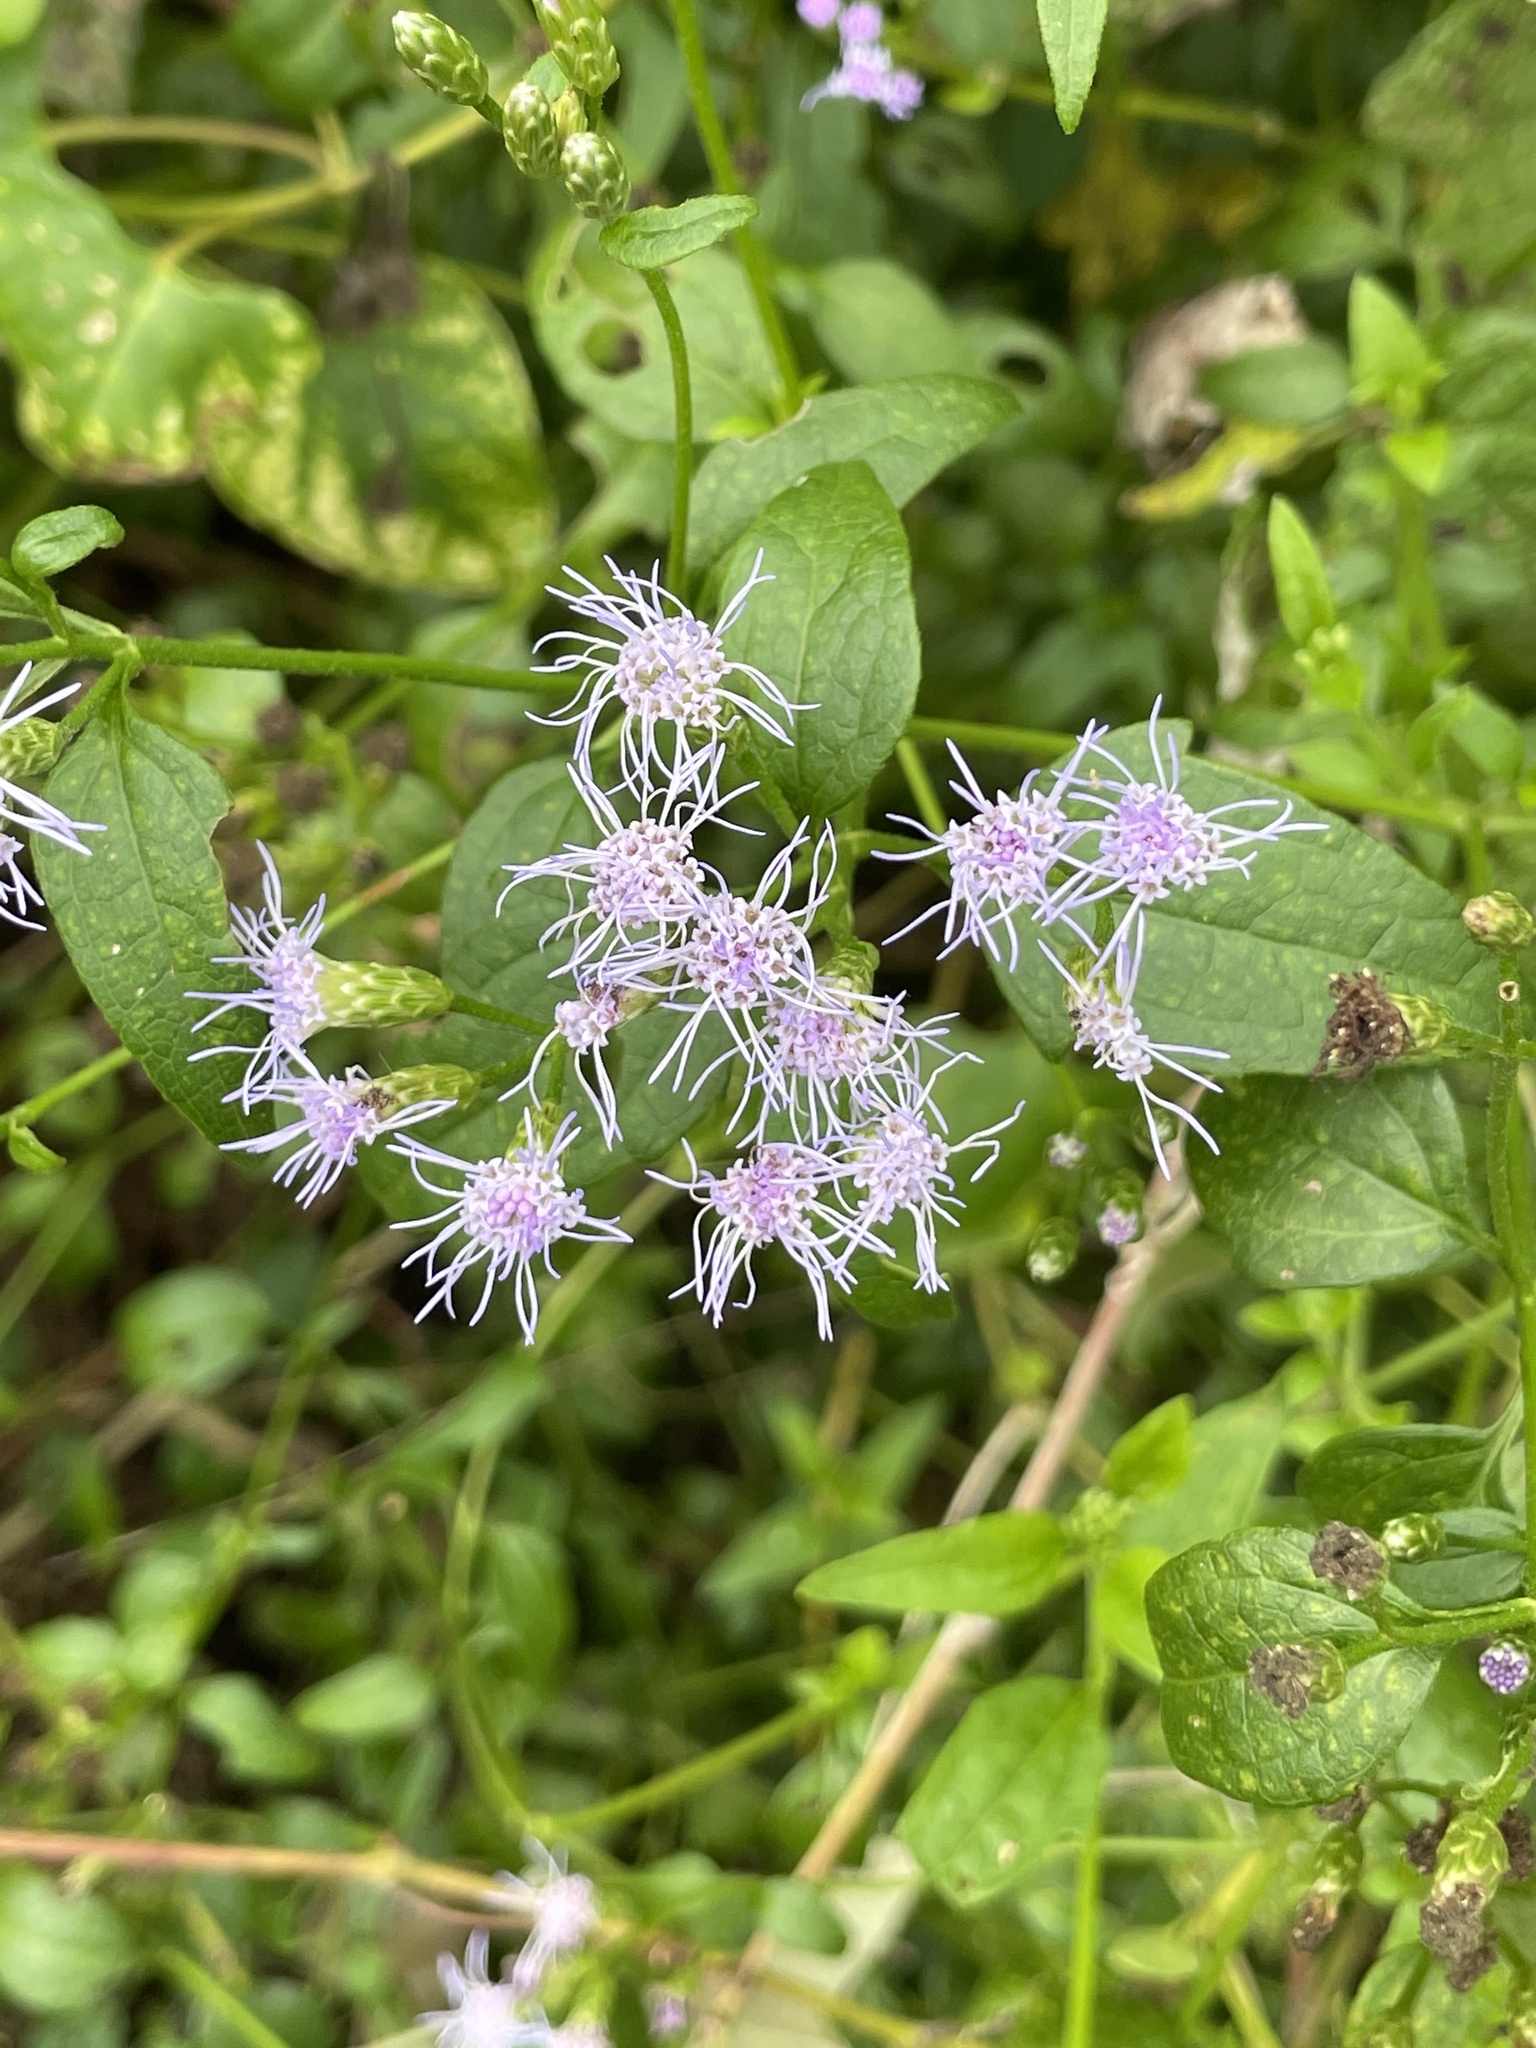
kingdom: Plantae
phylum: Tracheophyta
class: Magnoliopsida
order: Asterales
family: Asteraceae
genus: Chromolaena
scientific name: Chromolaena odorata
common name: Siamweed
